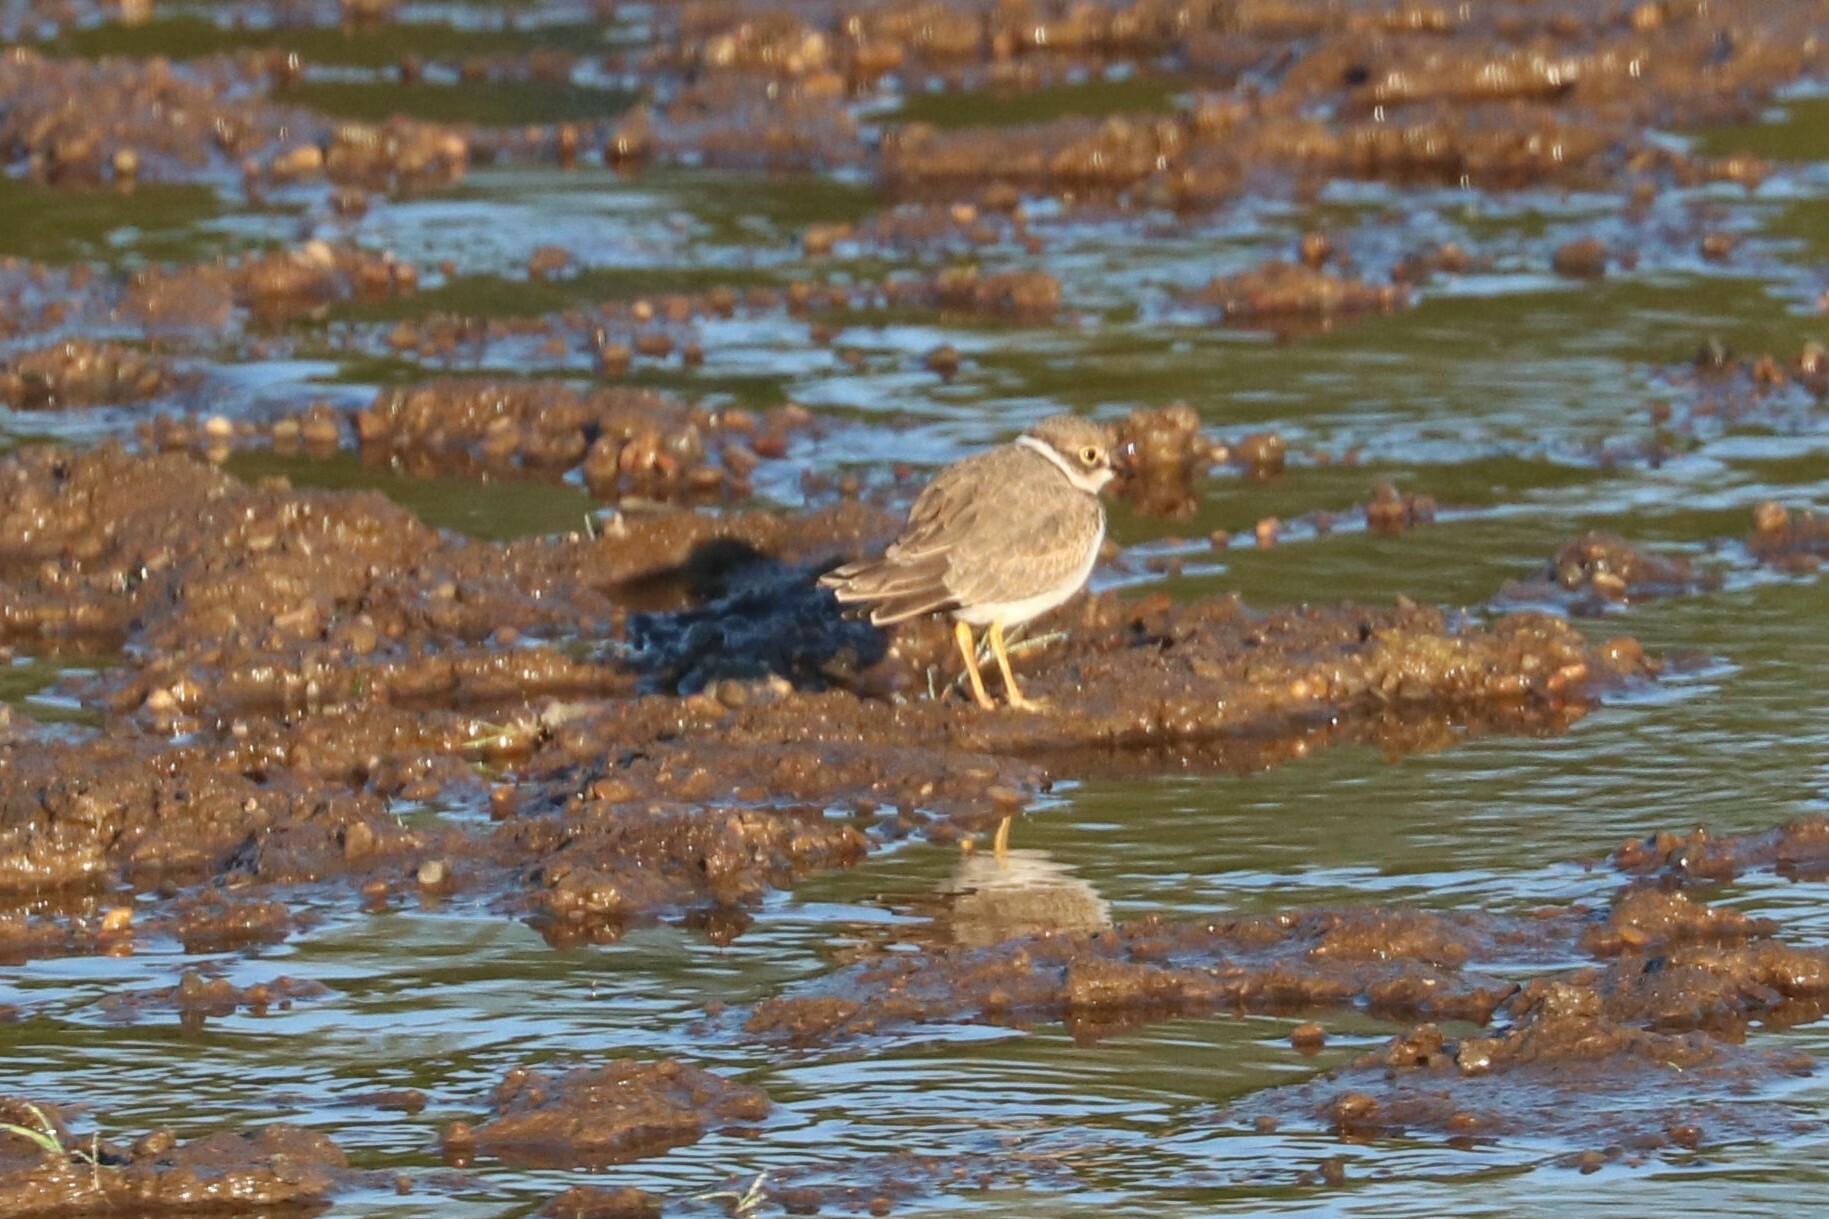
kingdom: Animalia
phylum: Chordata
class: Aves
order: Charadriiformes
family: Charadriidae
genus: Charadrius
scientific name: Charadrius dubius
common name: Little ringed plover
